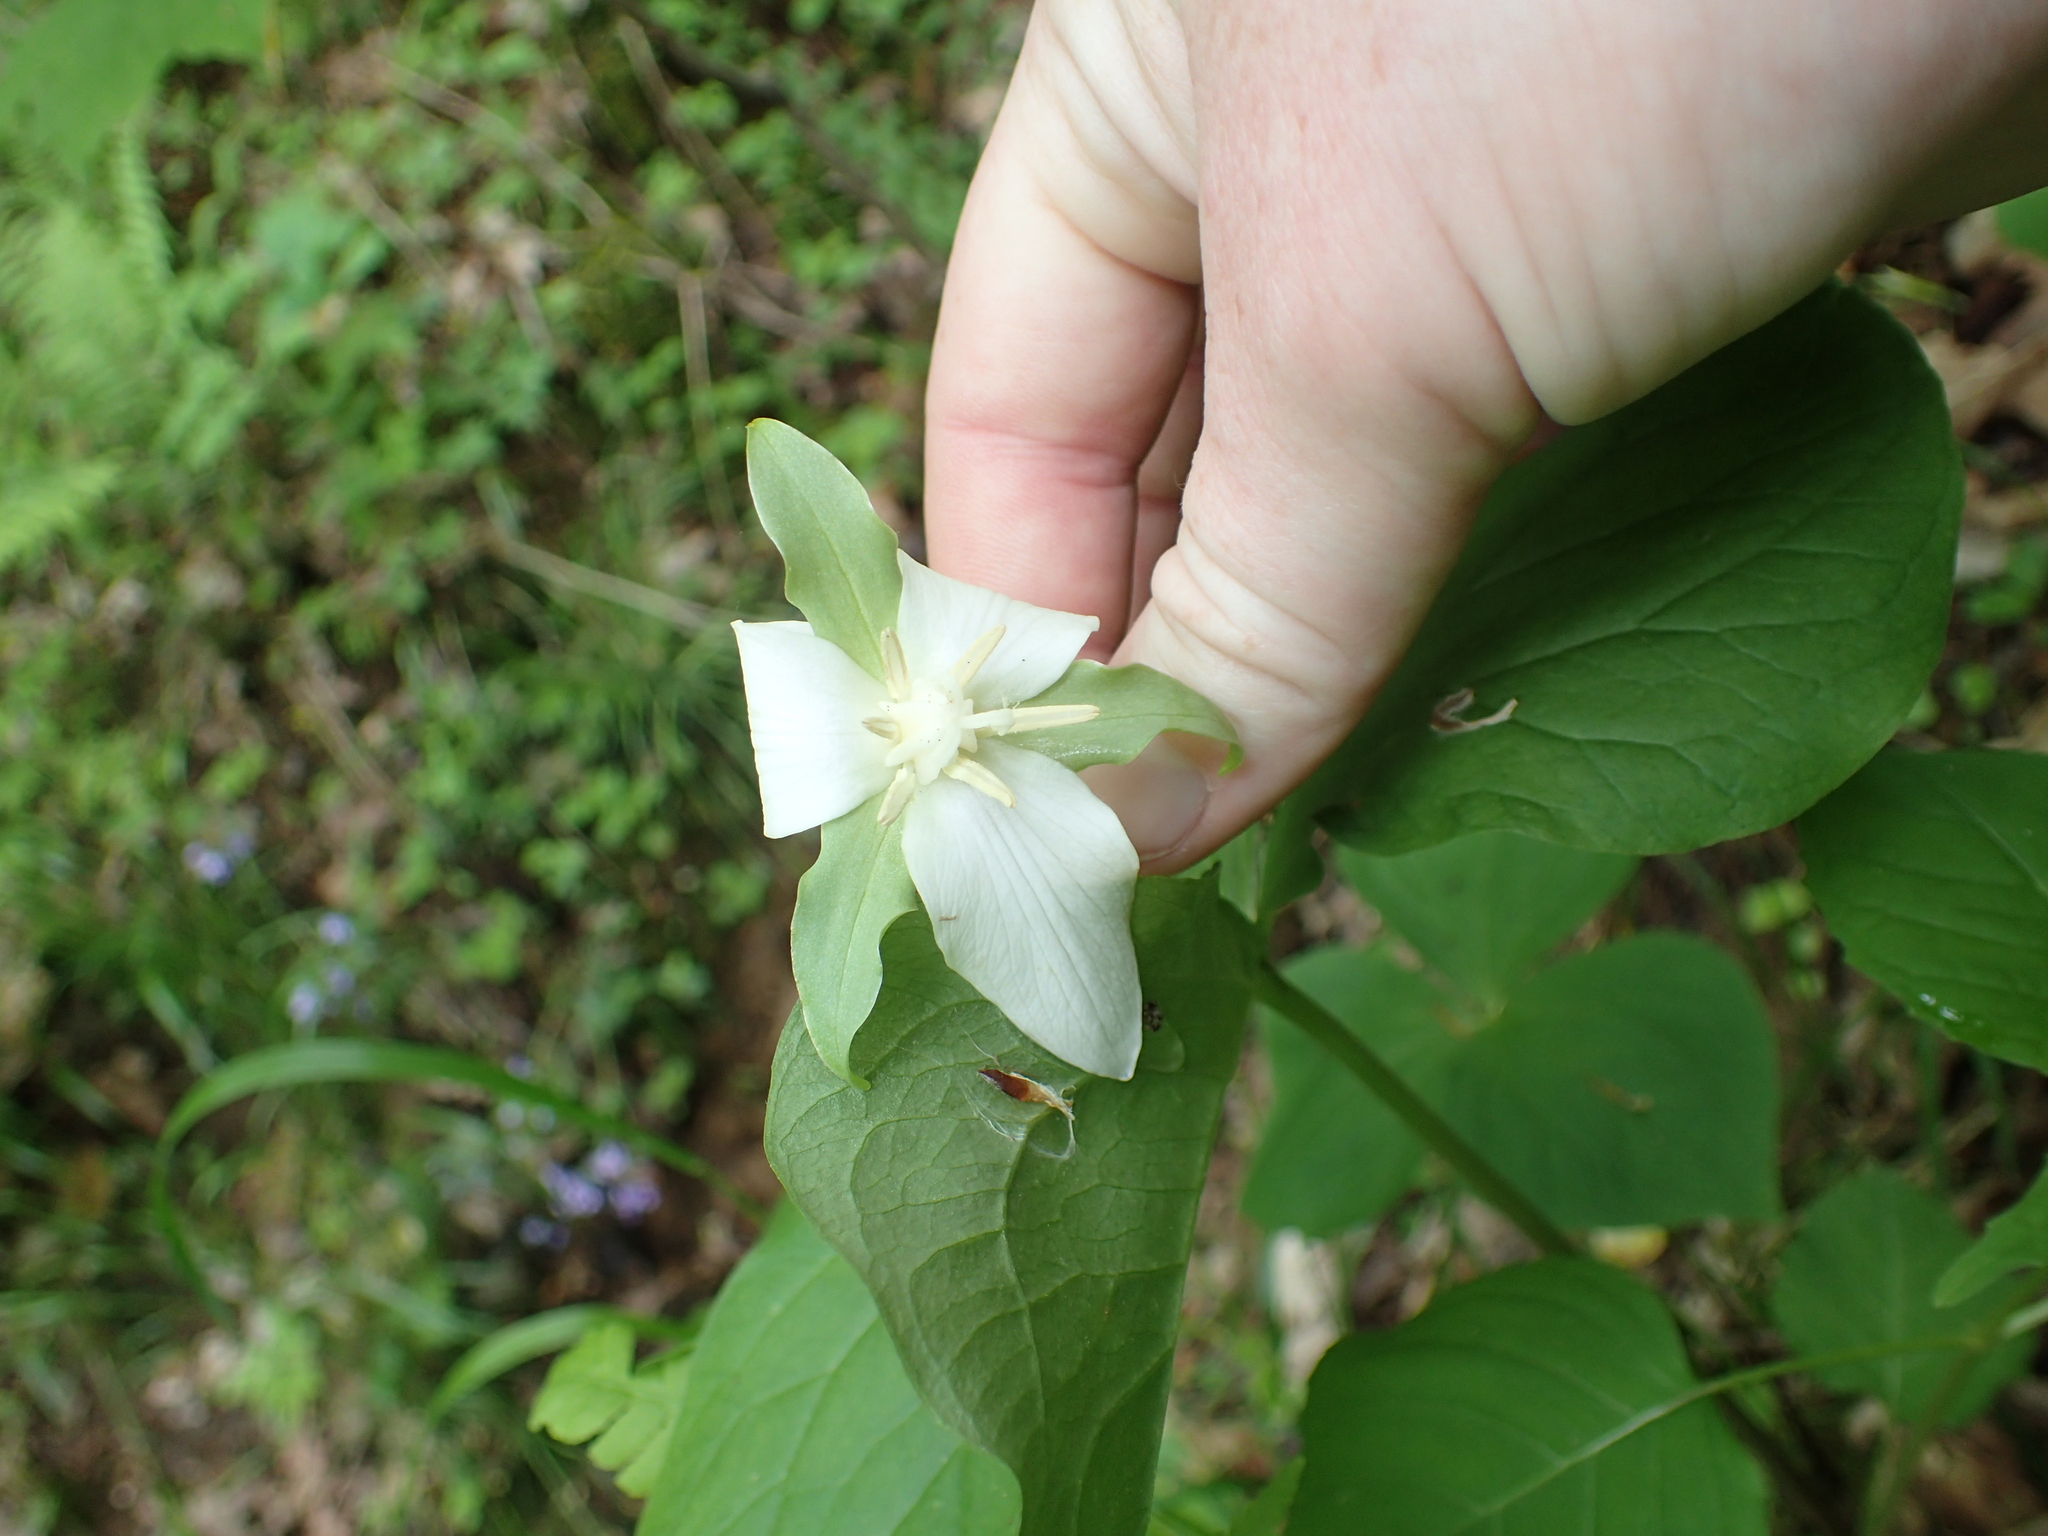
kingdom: Plantae
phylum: Tracheophyta
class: Liliopsida
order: Liliales
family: Melanthiaceae
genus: Trillium
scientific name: Trillium flexipes
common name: Drooping trillium
